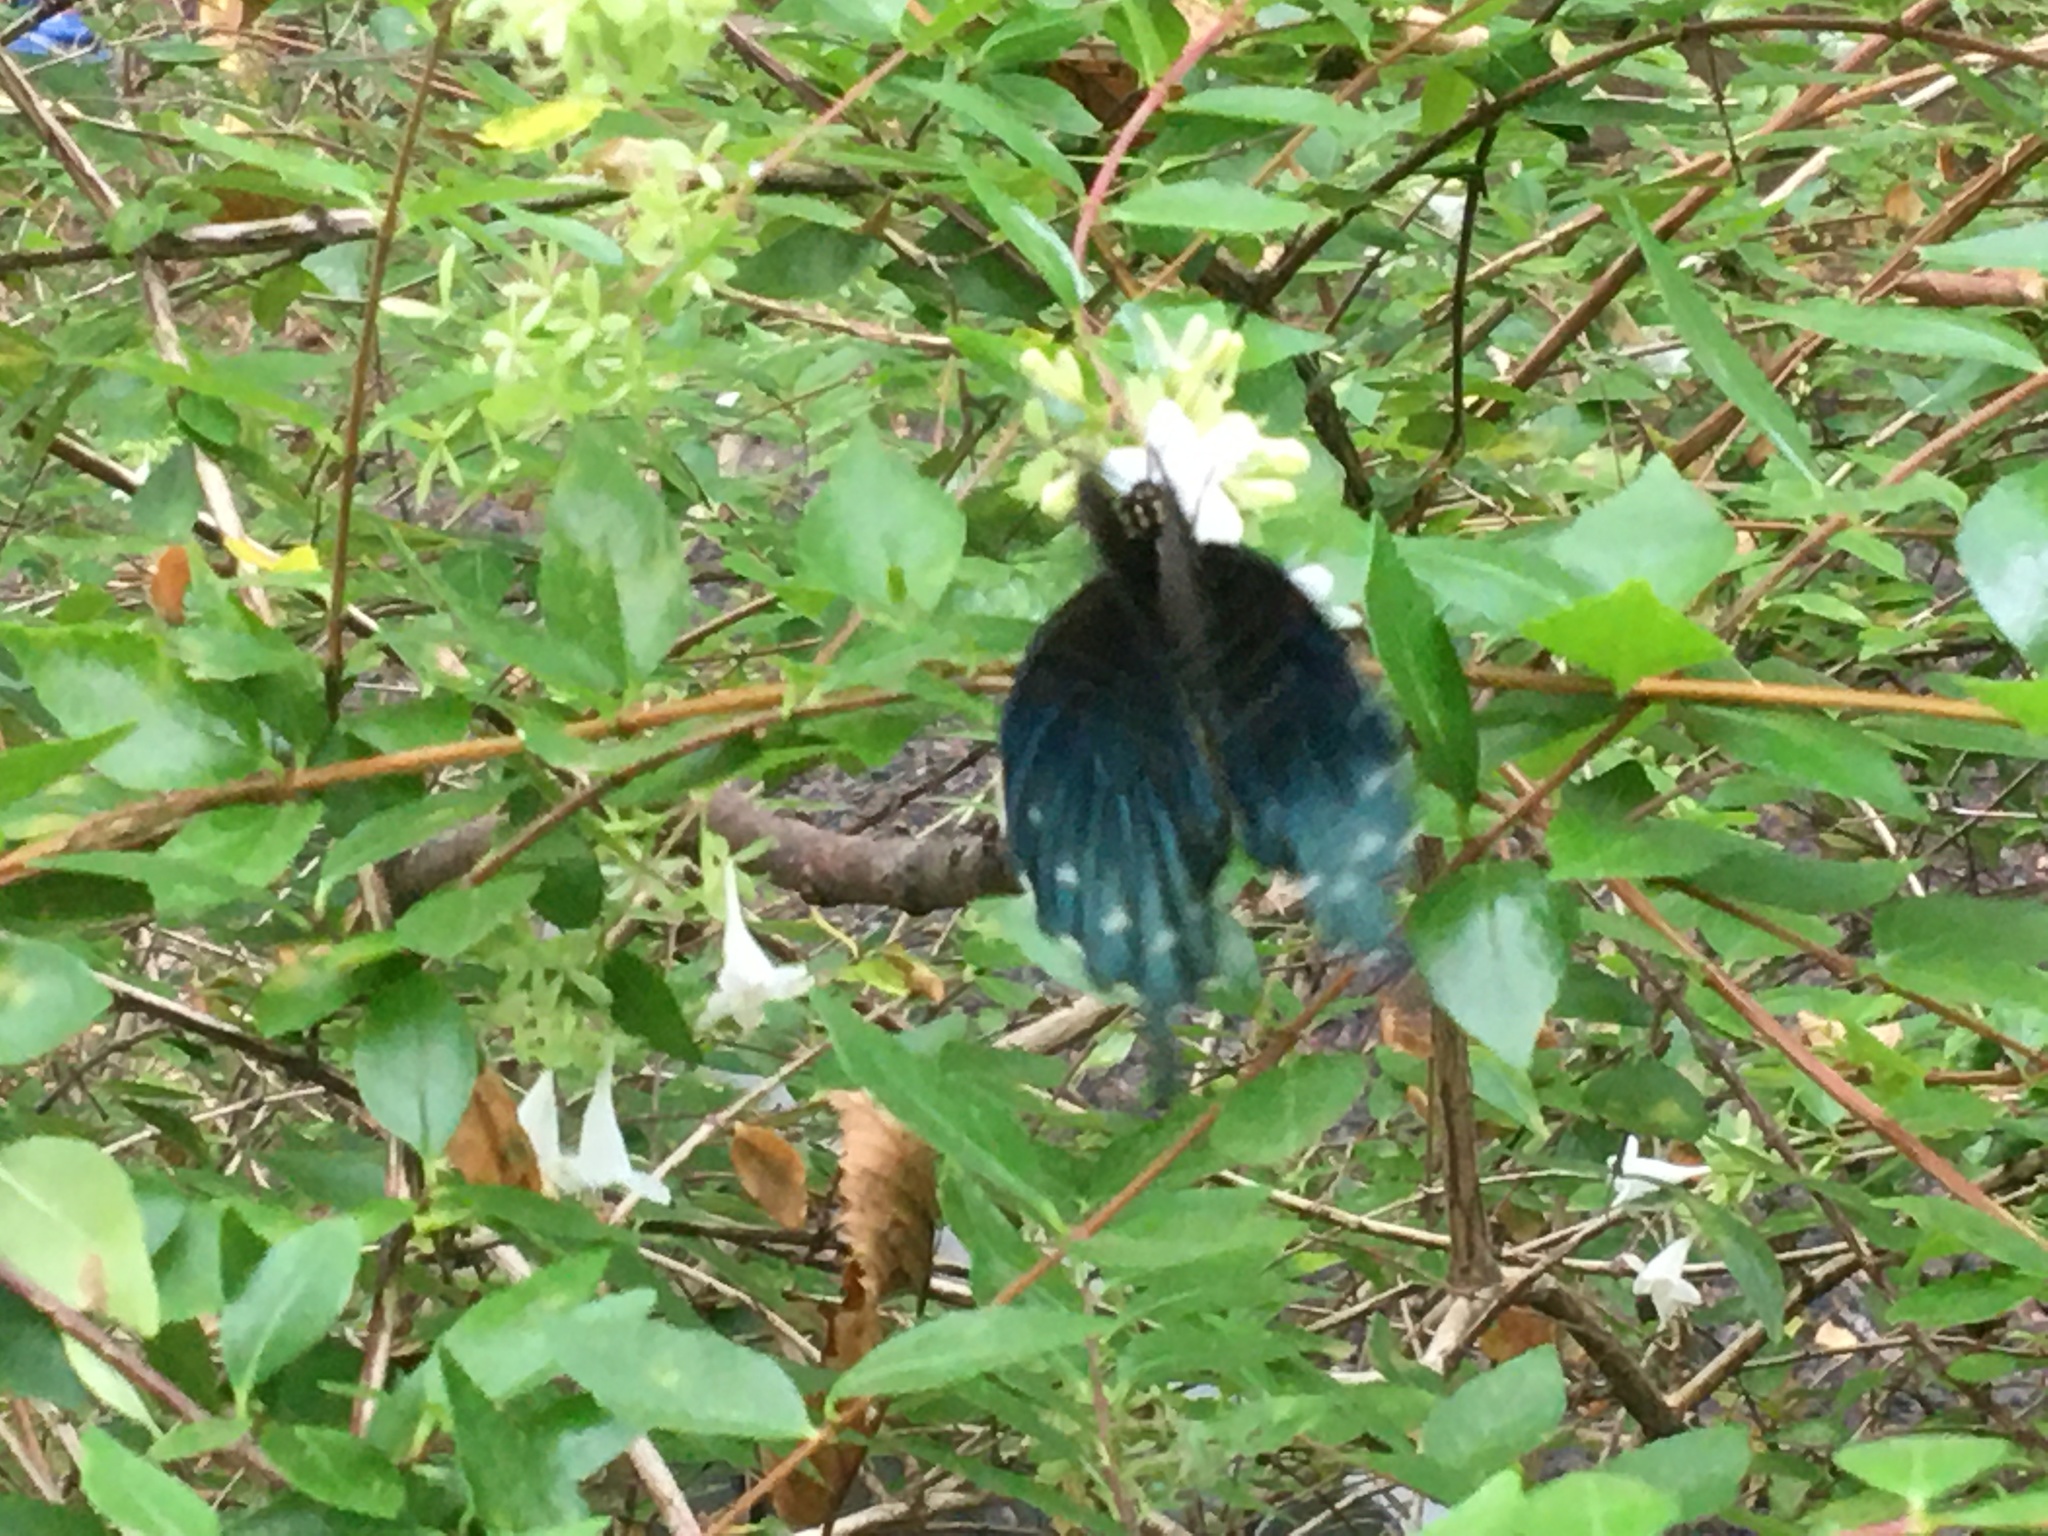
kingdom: Animalia
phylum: Arthropoda
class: Insecta
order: Lepidoptera
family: Papilionidae
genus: Battus
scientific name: Battus philenor
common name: Pipevine swallowtail
